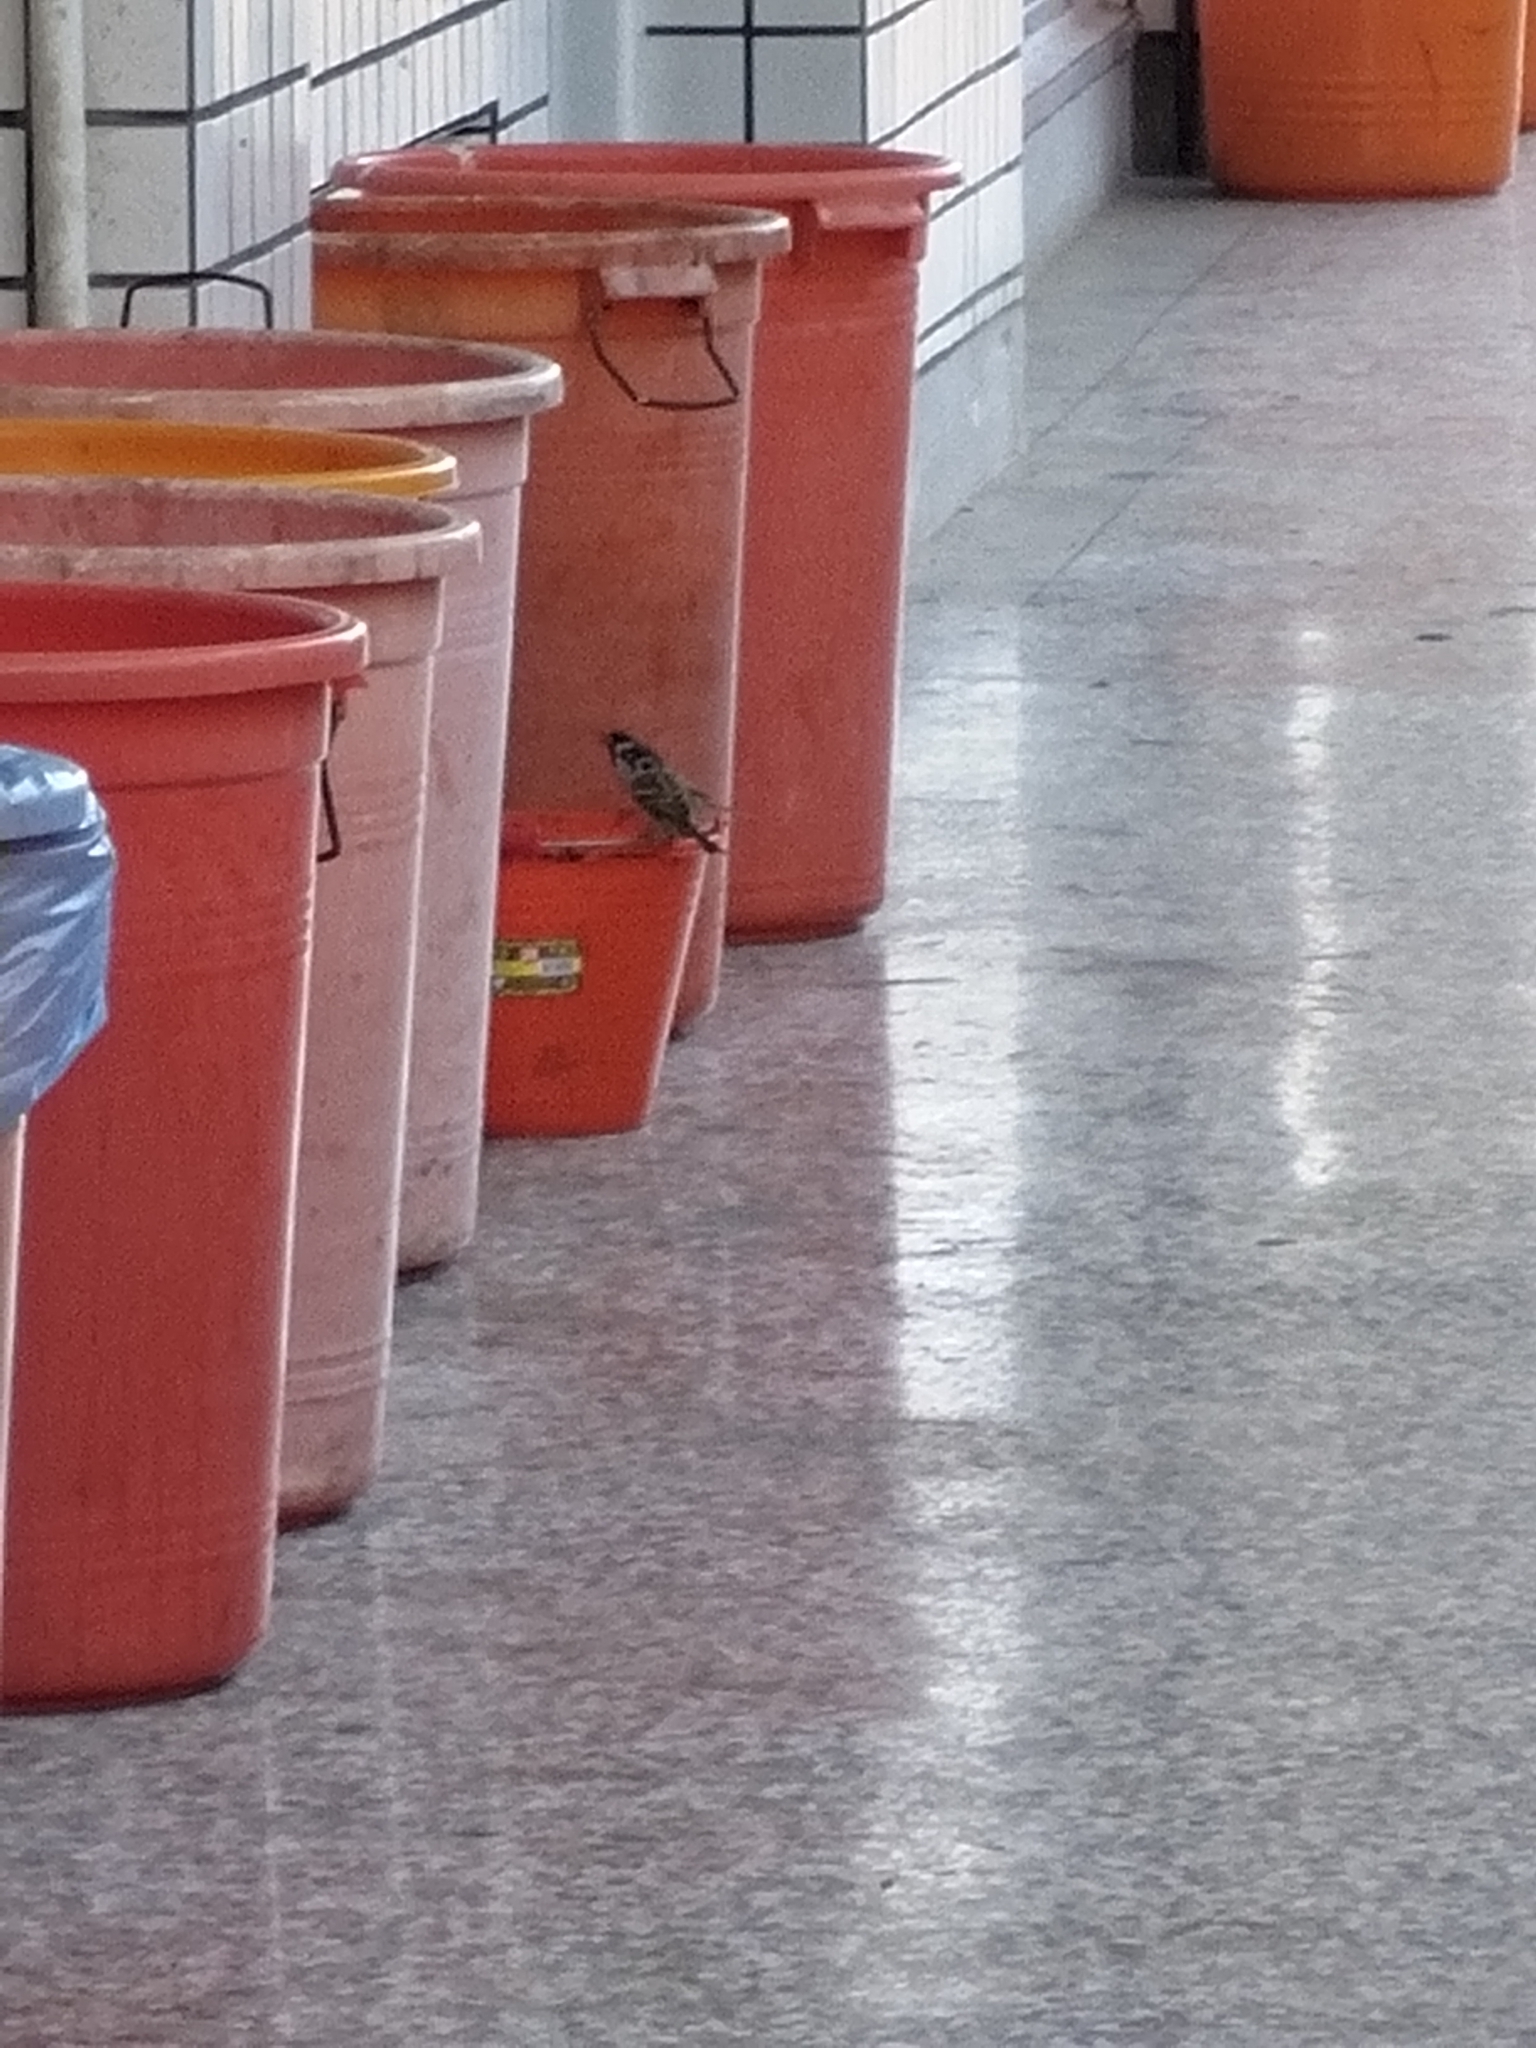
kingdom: Animalia
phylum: Chordata
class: Aves
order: Passeriformes
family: Passeridae
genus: Passer
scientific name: Passer montanus
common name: Eurasian tree sparrow
